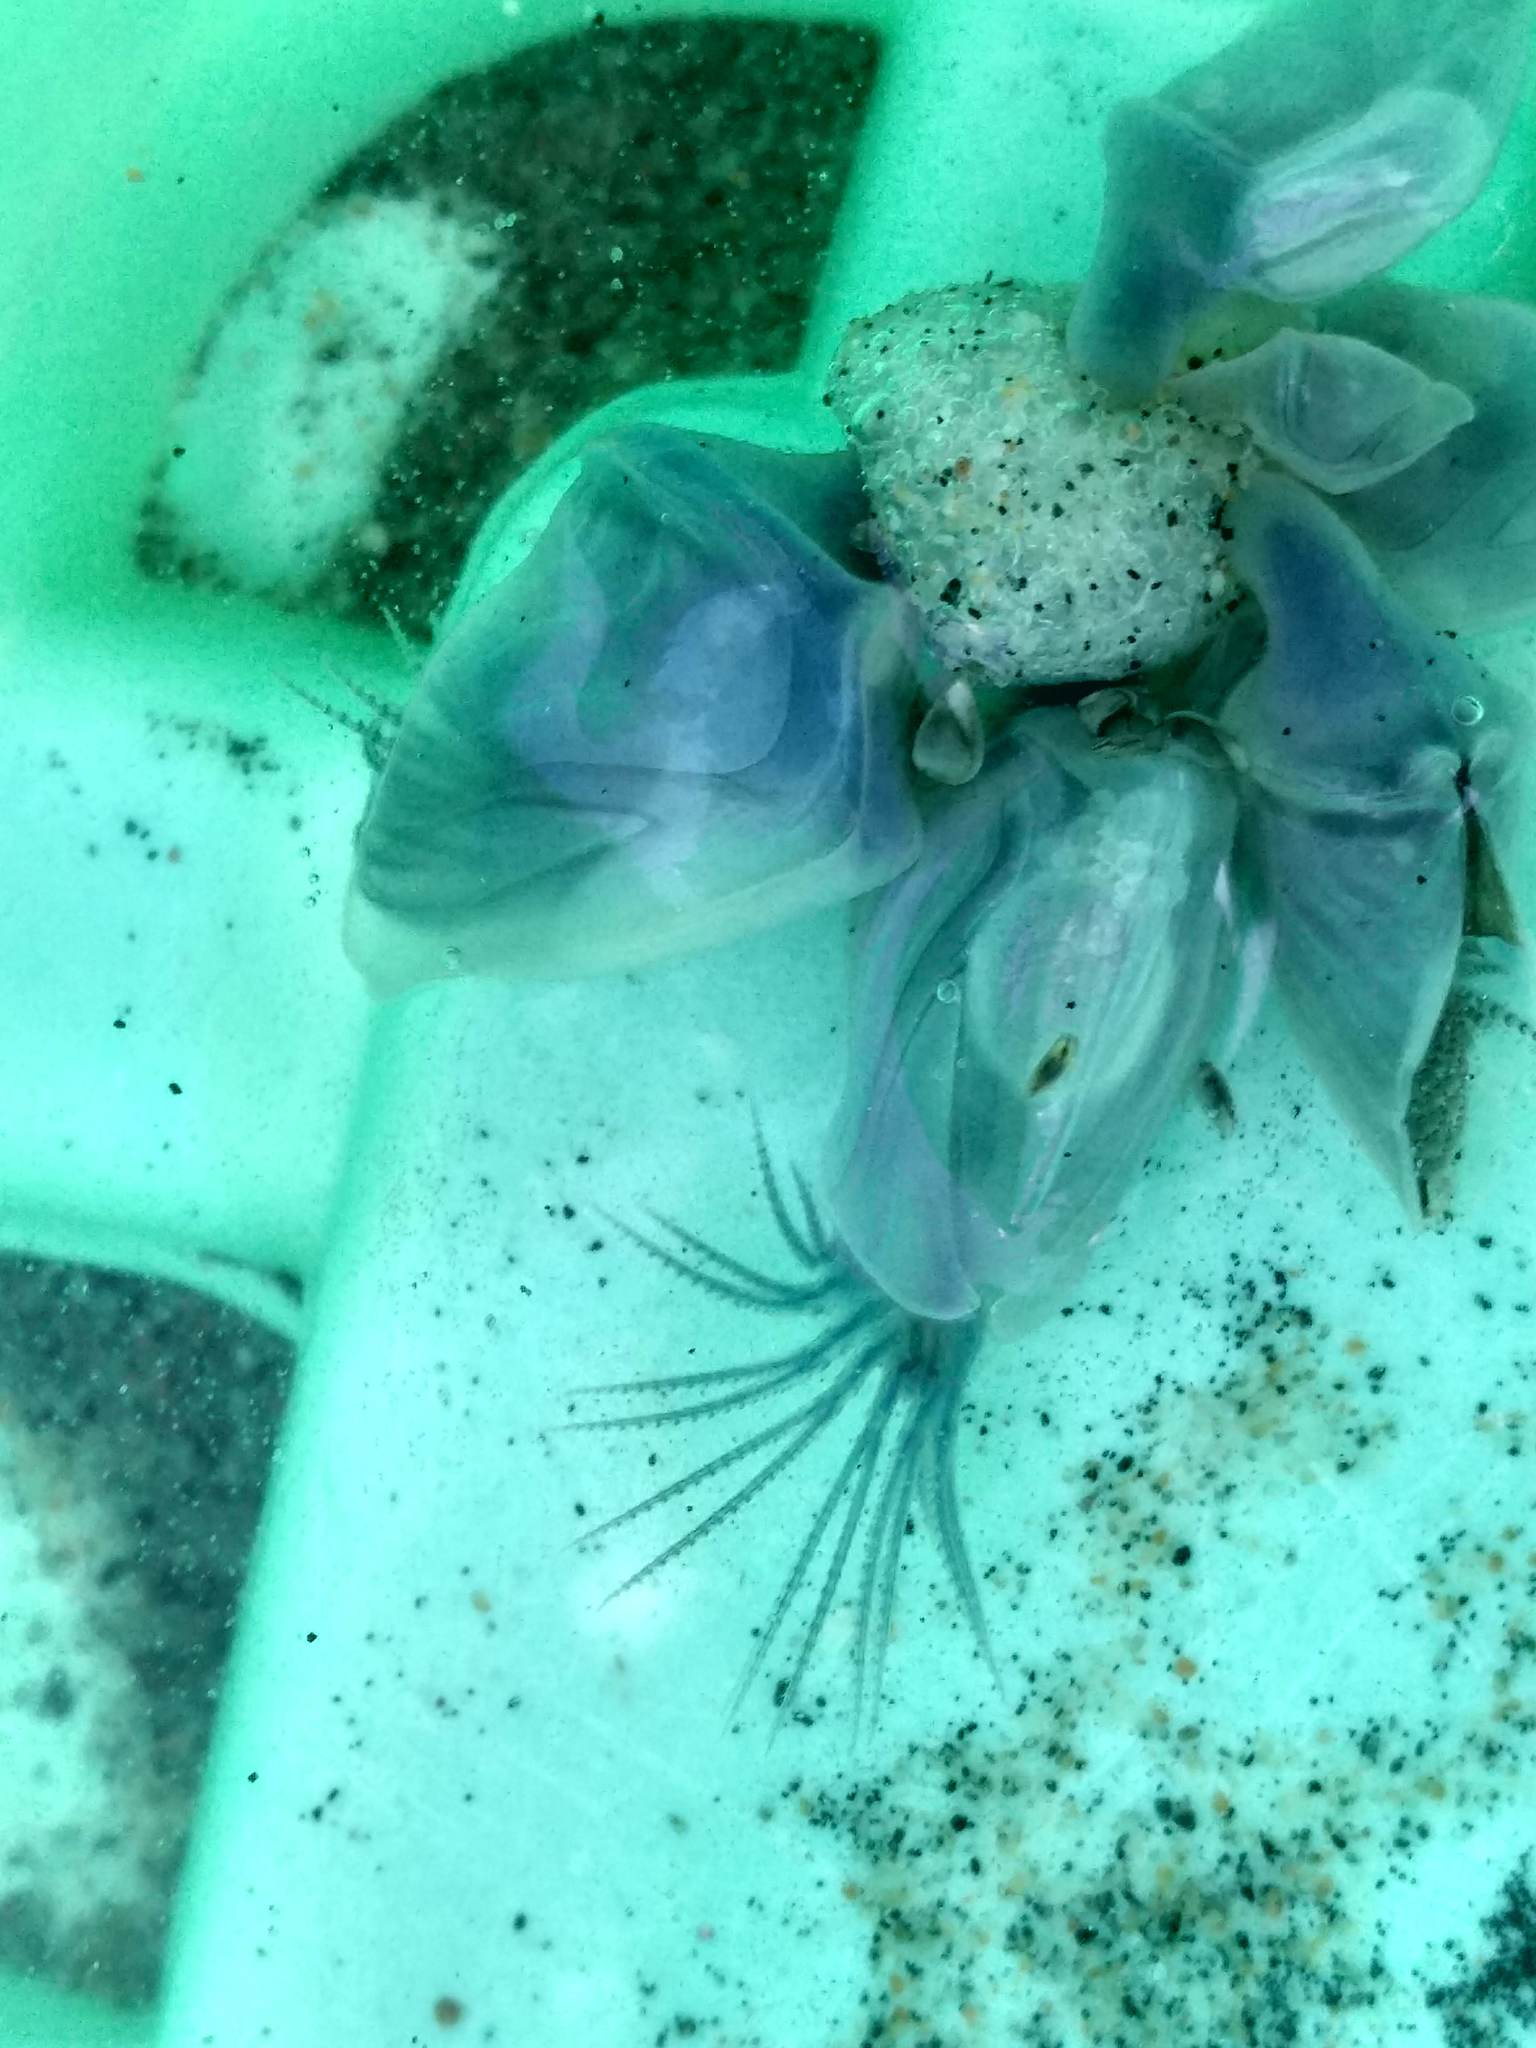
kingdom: Animalia
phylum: Arthropoda
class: Maxillopoda
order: Pedunculata
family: Lepadidae
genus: Dosima
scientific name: Dosima fascicularis
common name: Buoy barnacle
